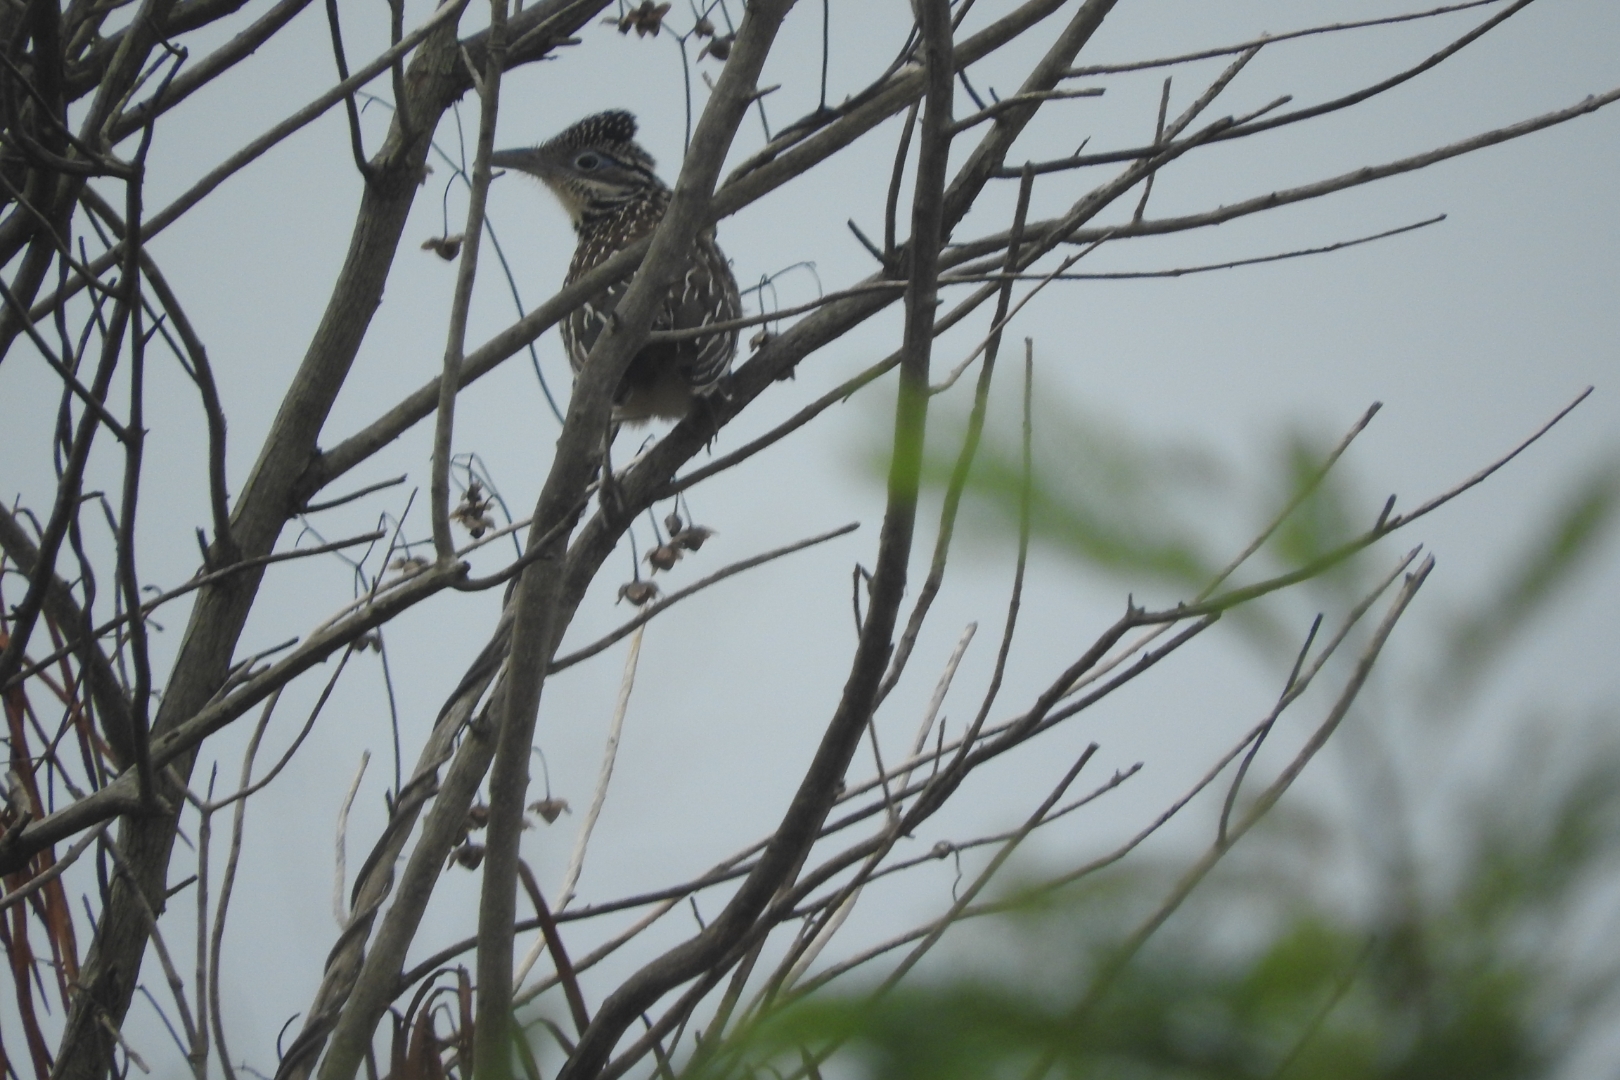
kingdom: Animalia
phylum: Chordata
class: Aves
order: Cuculiformes
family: Cuculidae
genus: Geococcyx
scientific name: Geococcyx velox
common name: Lesser roadrunner
